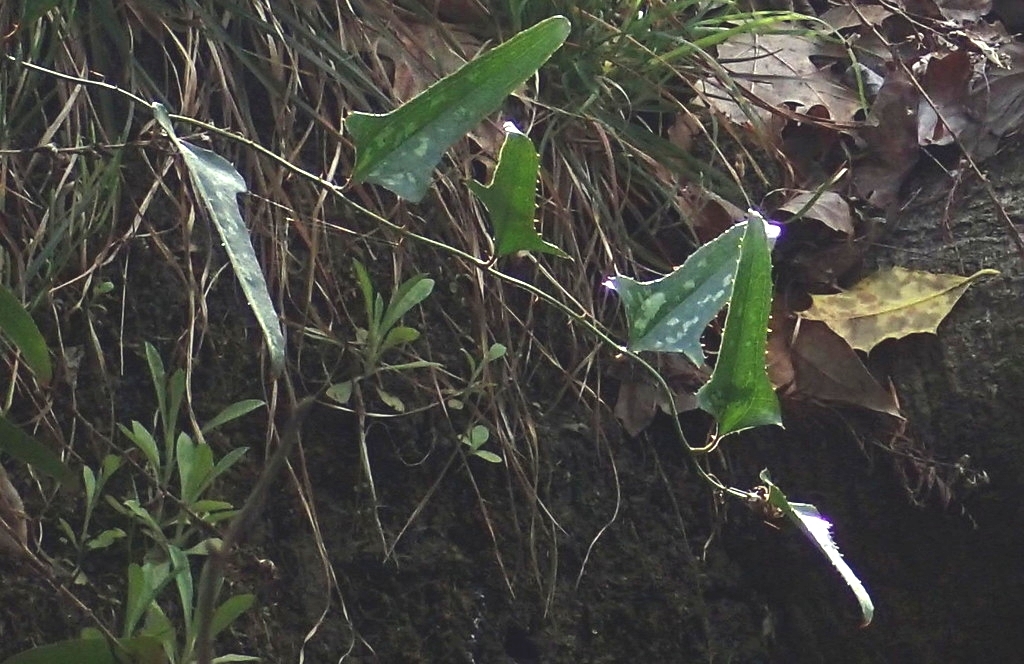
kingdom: Plantae
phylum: Tracheophyta
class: Liliopsida
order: Liliales
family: Smilacaceae
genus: Smilax
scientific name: Smilax bona-nox
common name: Catbrier
